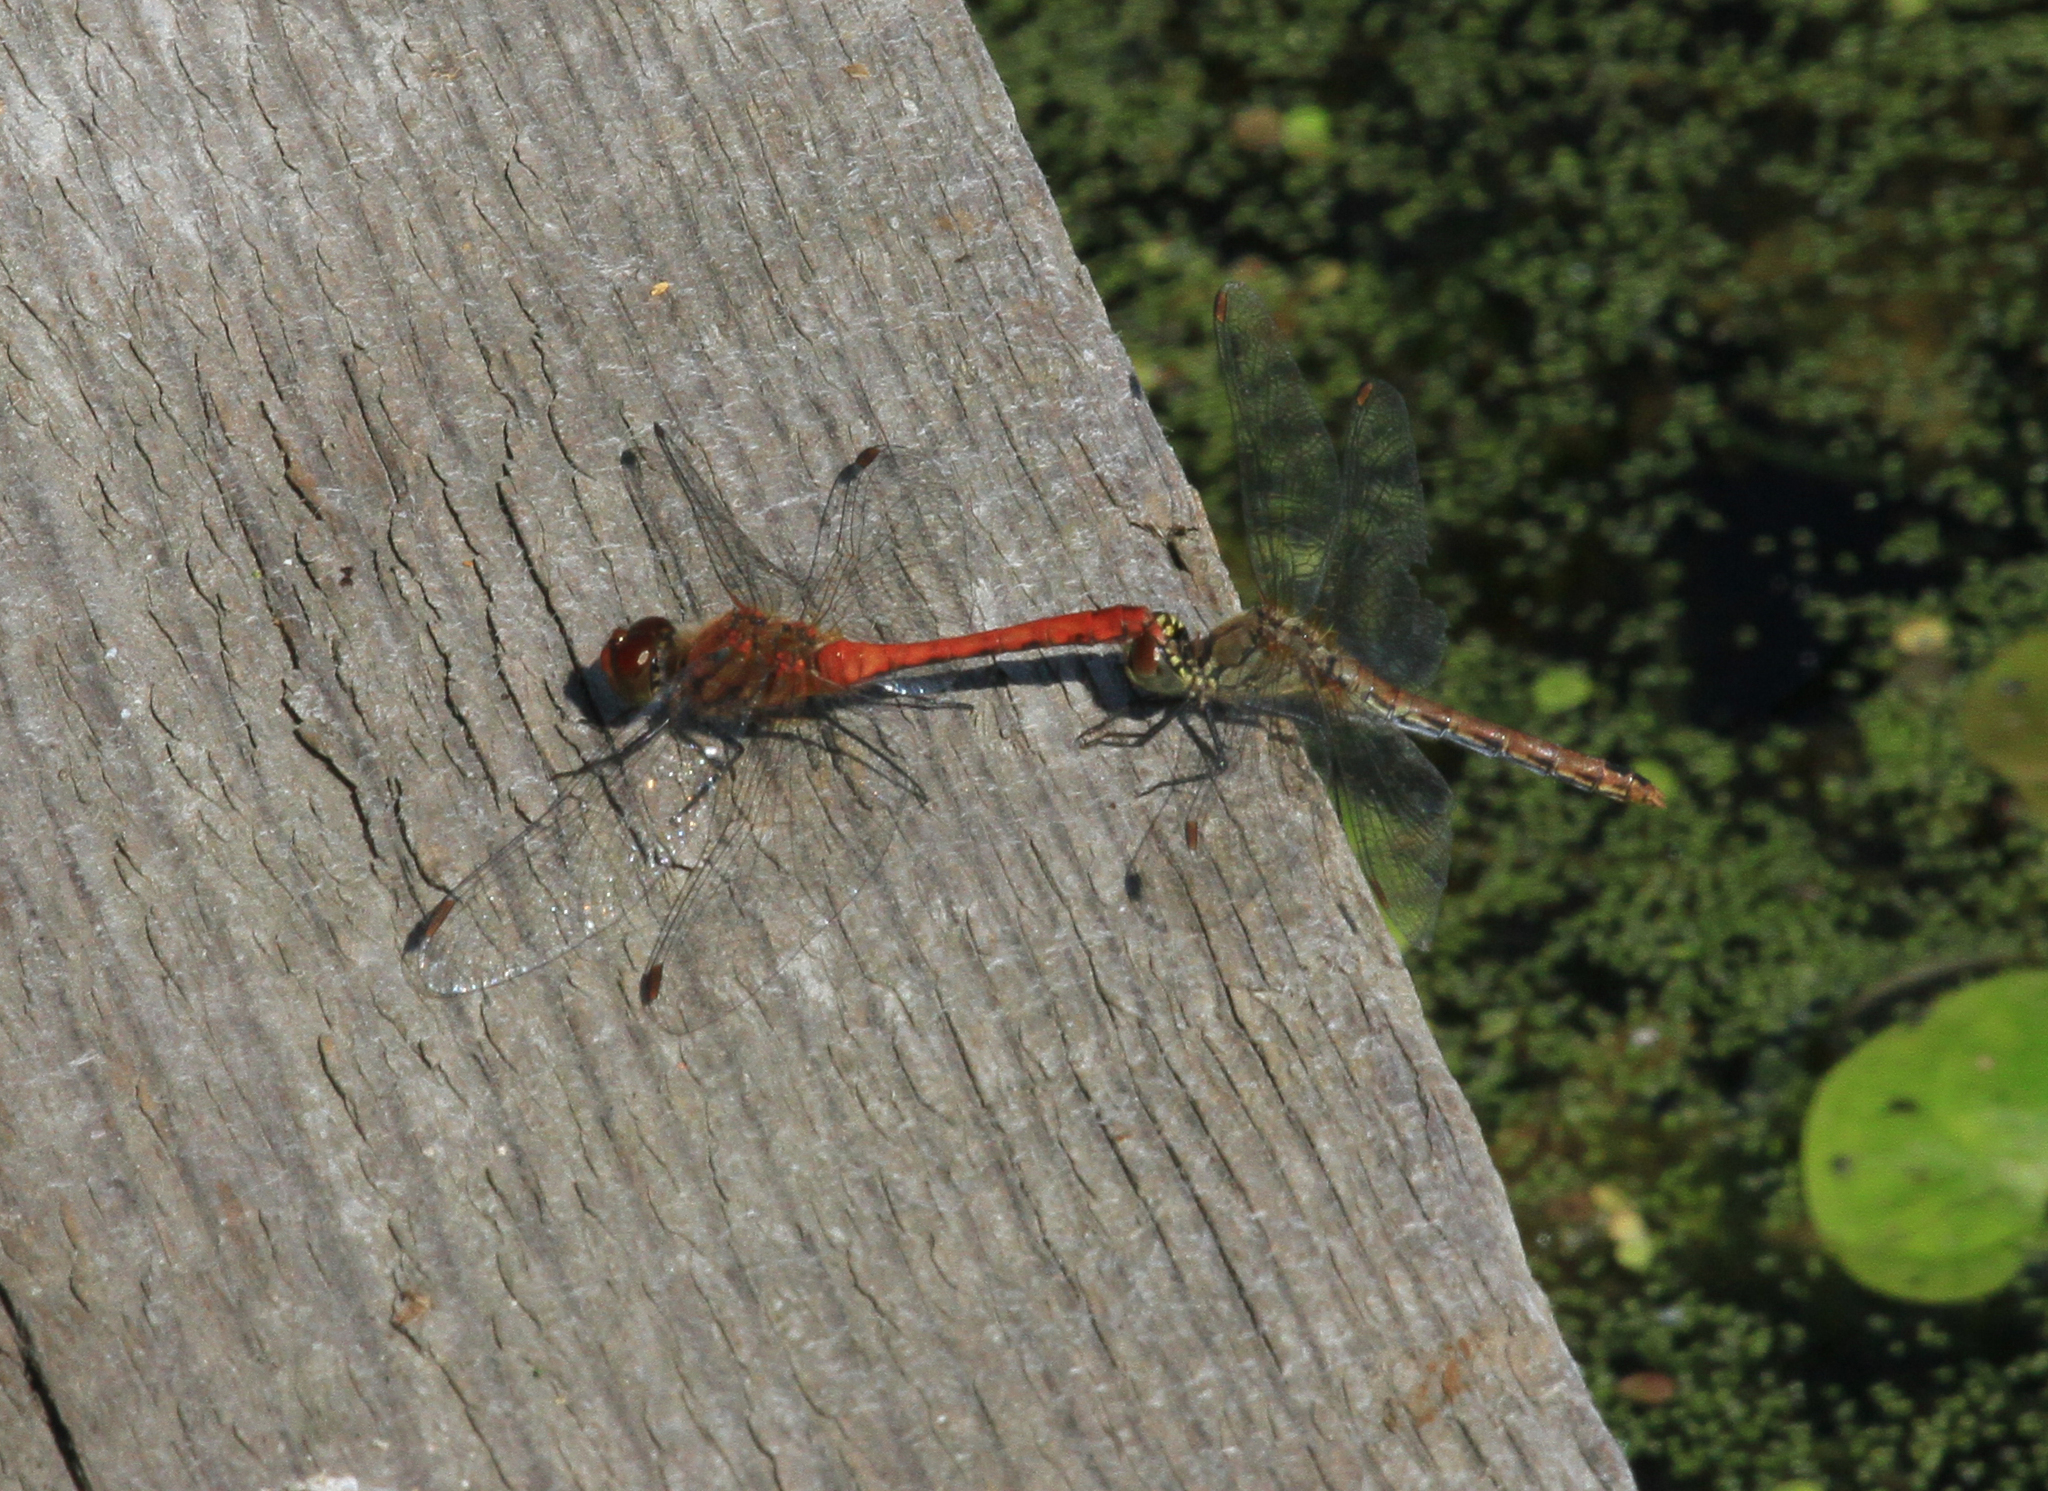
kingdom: Animalia
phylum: Arthropoda
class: Insecta
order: Odonata
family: Libellulidae
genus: Sympetrum
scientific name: Sympetrum sanguineum
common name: Ruddy darter
